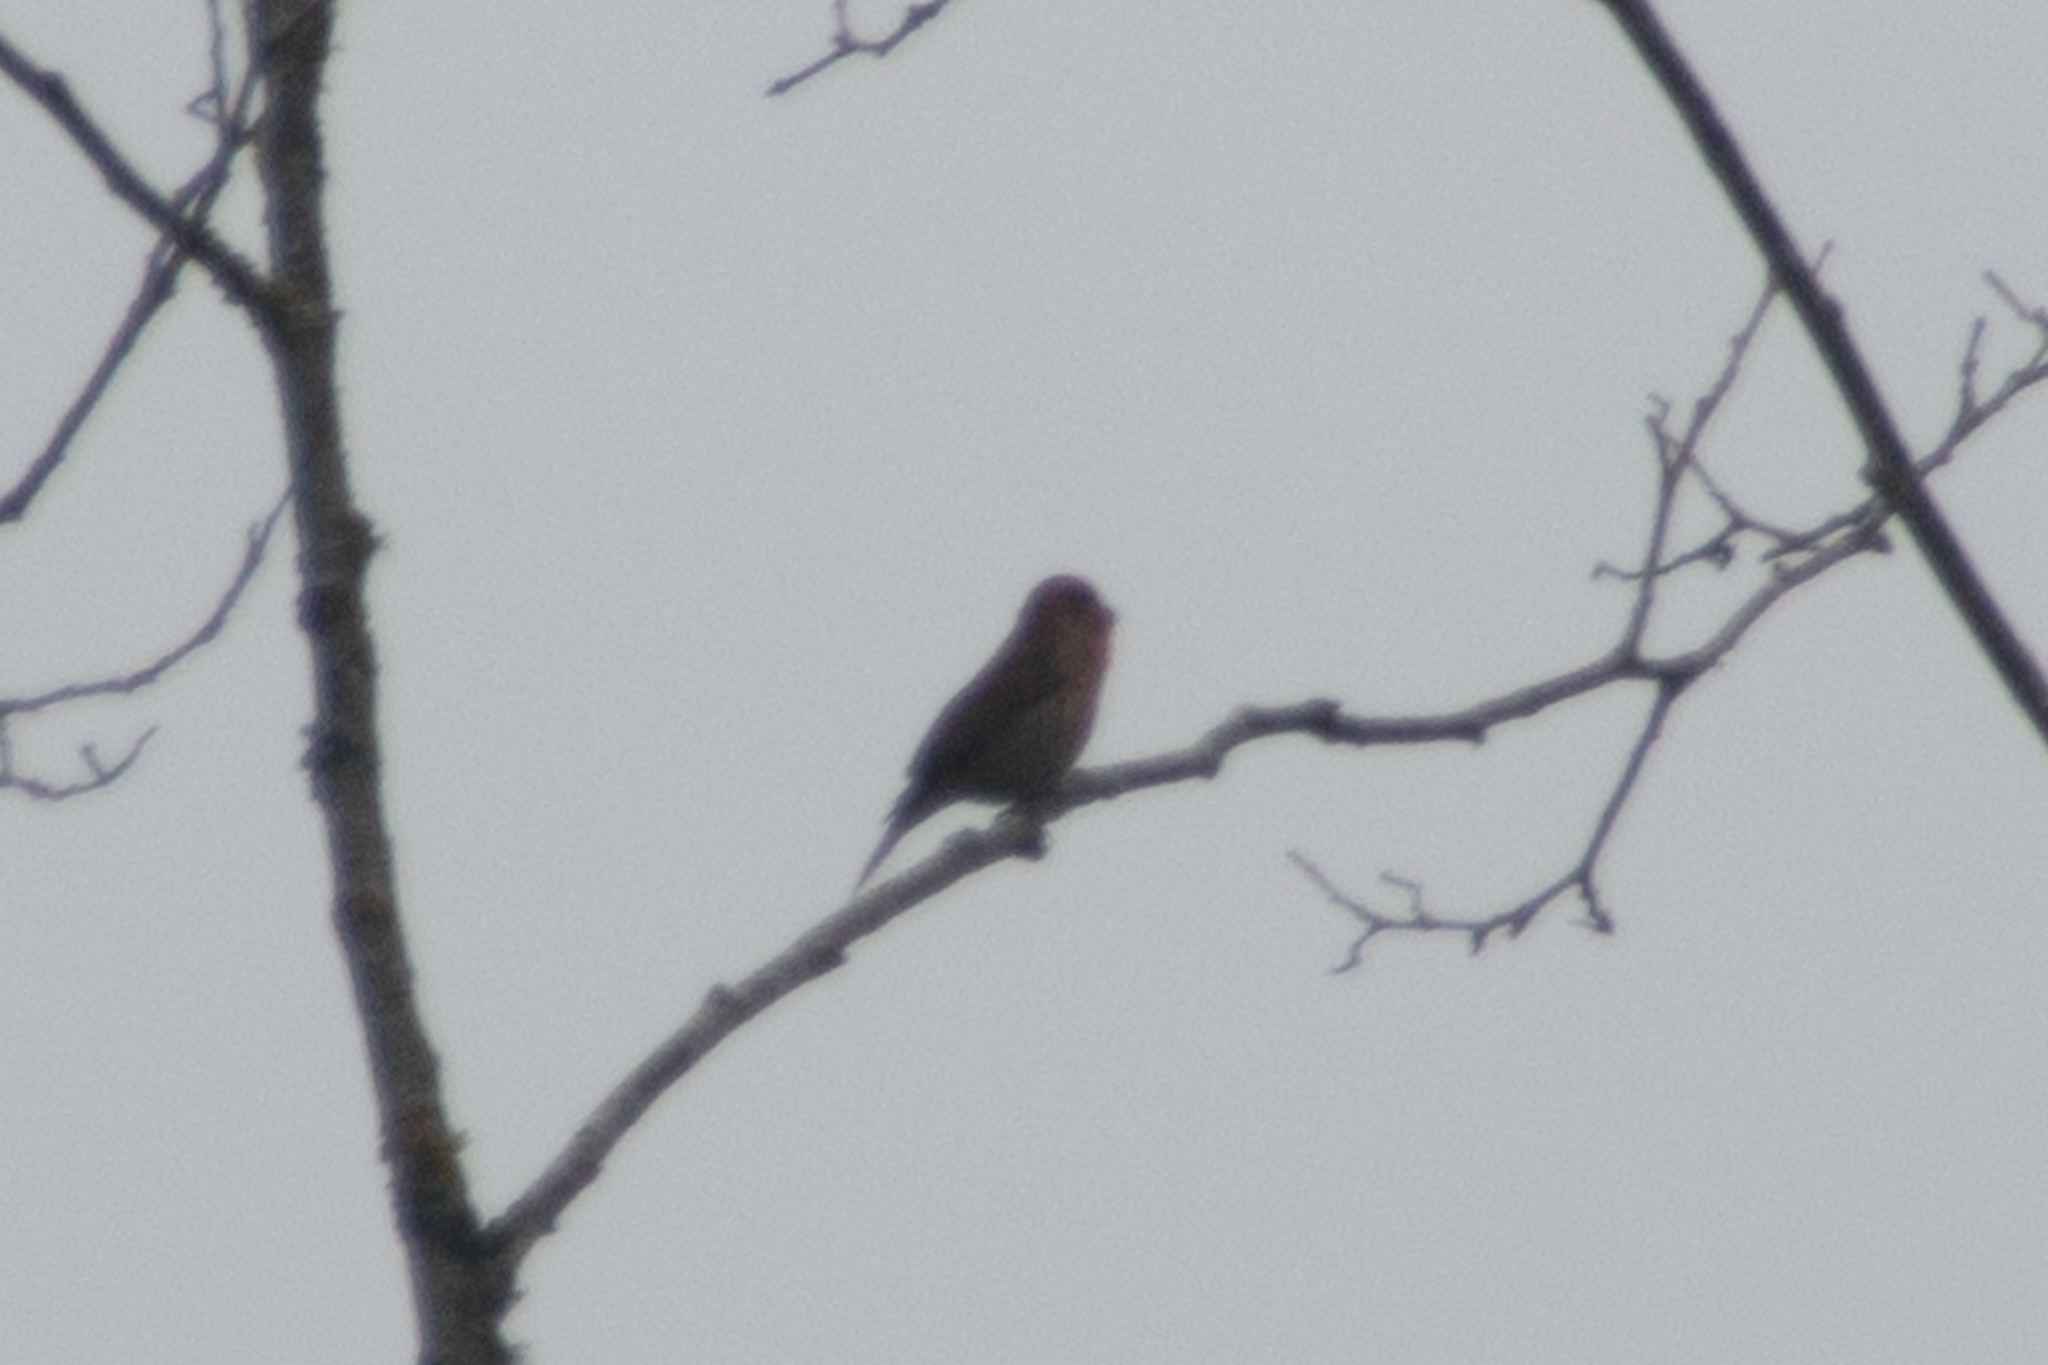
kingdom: Animalia
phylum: Chordata
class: Aves
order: Passeriformes
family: Fringillidae
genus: Haemorhous
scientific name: Haemorhous mexicanus
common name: House finch
